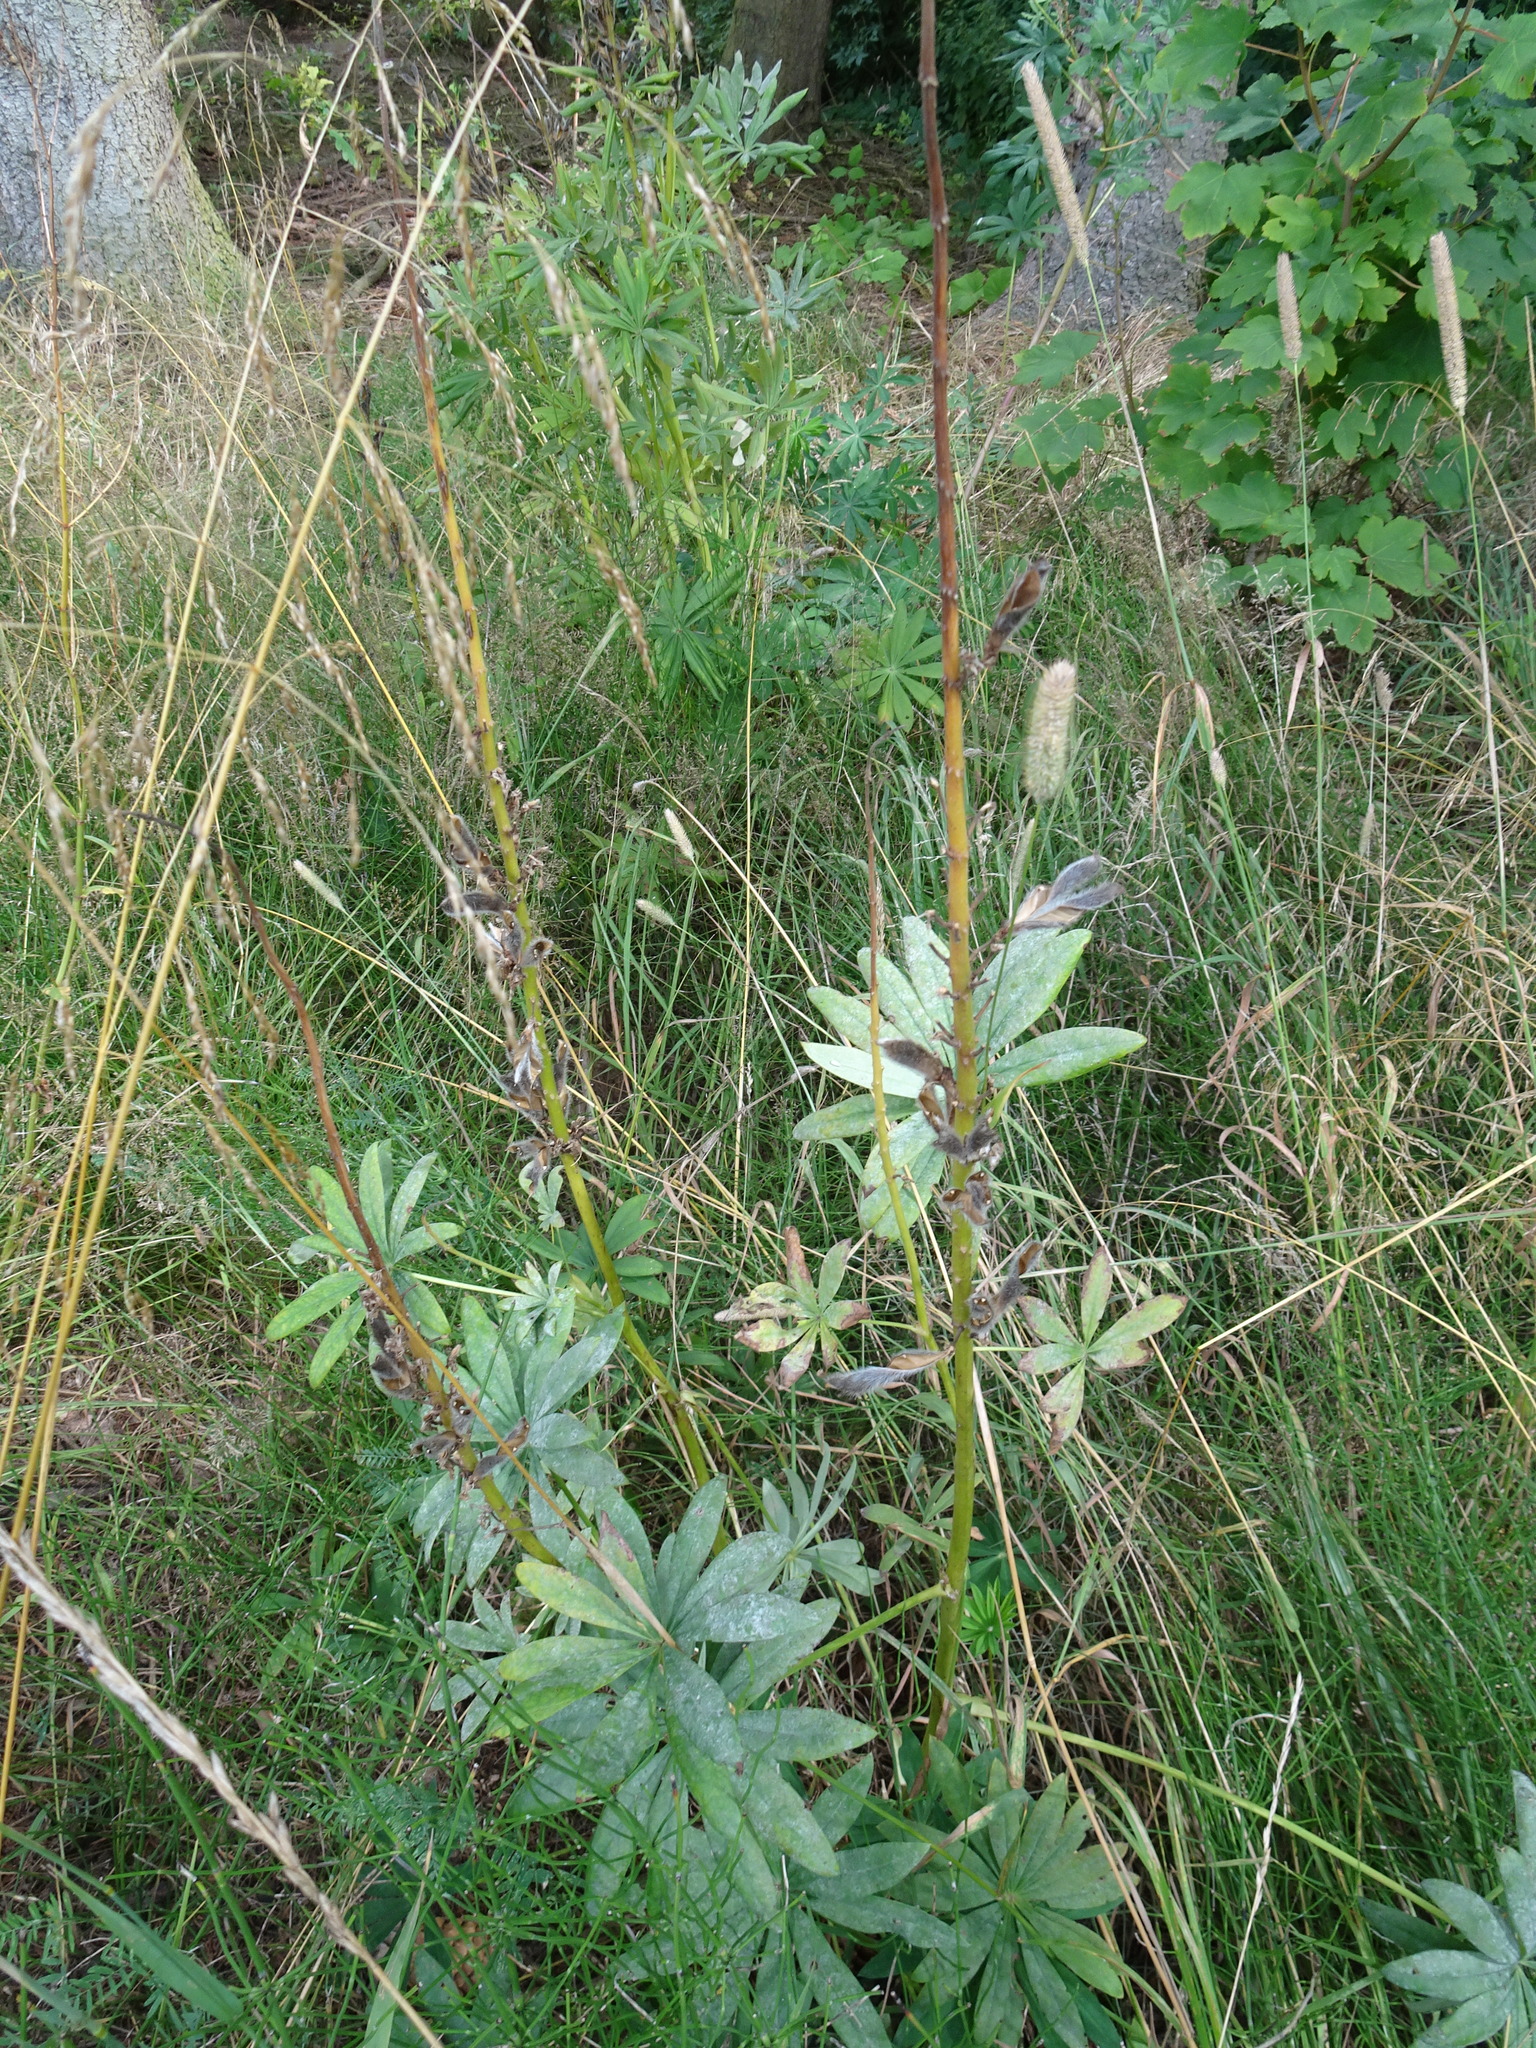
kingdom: Plantae
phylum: Tracheophyta
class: Magnoliopsida
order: Fabales
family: Fabaceae
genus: Lupinus
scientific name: Lupinus polyphyllus
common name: Garden lupin
